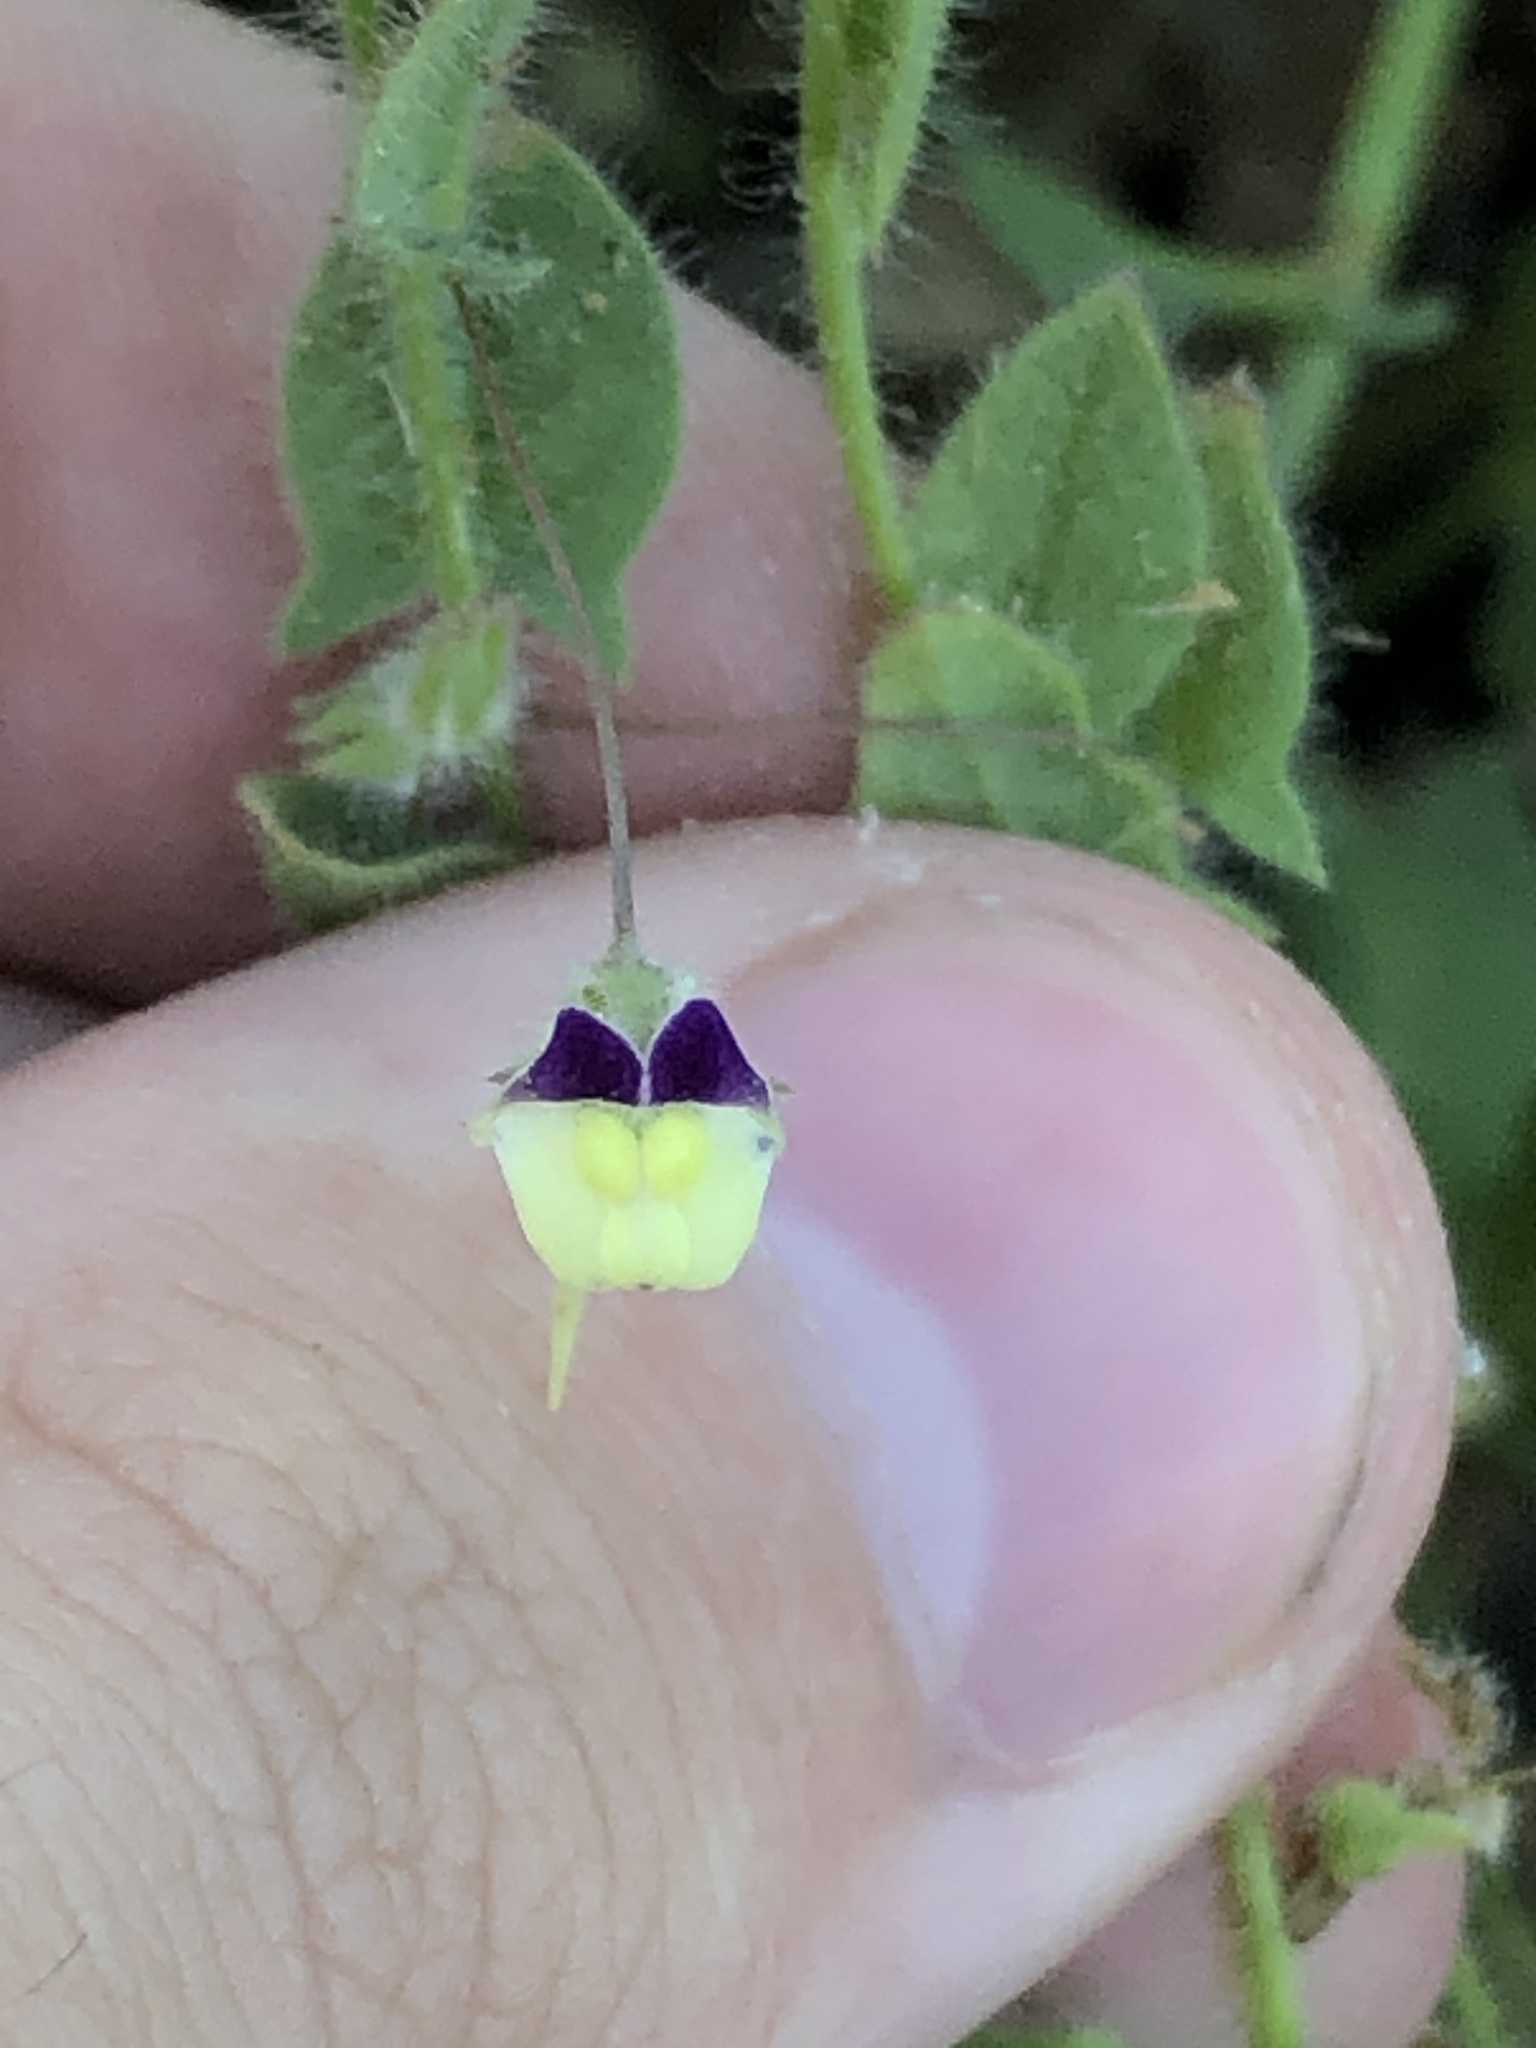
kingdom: Plantae
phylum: Tracheophyta
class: Magnoliopsida
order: Lamiales
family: Plantaginaceae
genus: Kickxia
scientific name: Kickxia elatine
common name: Sharp-leaved fluellen
